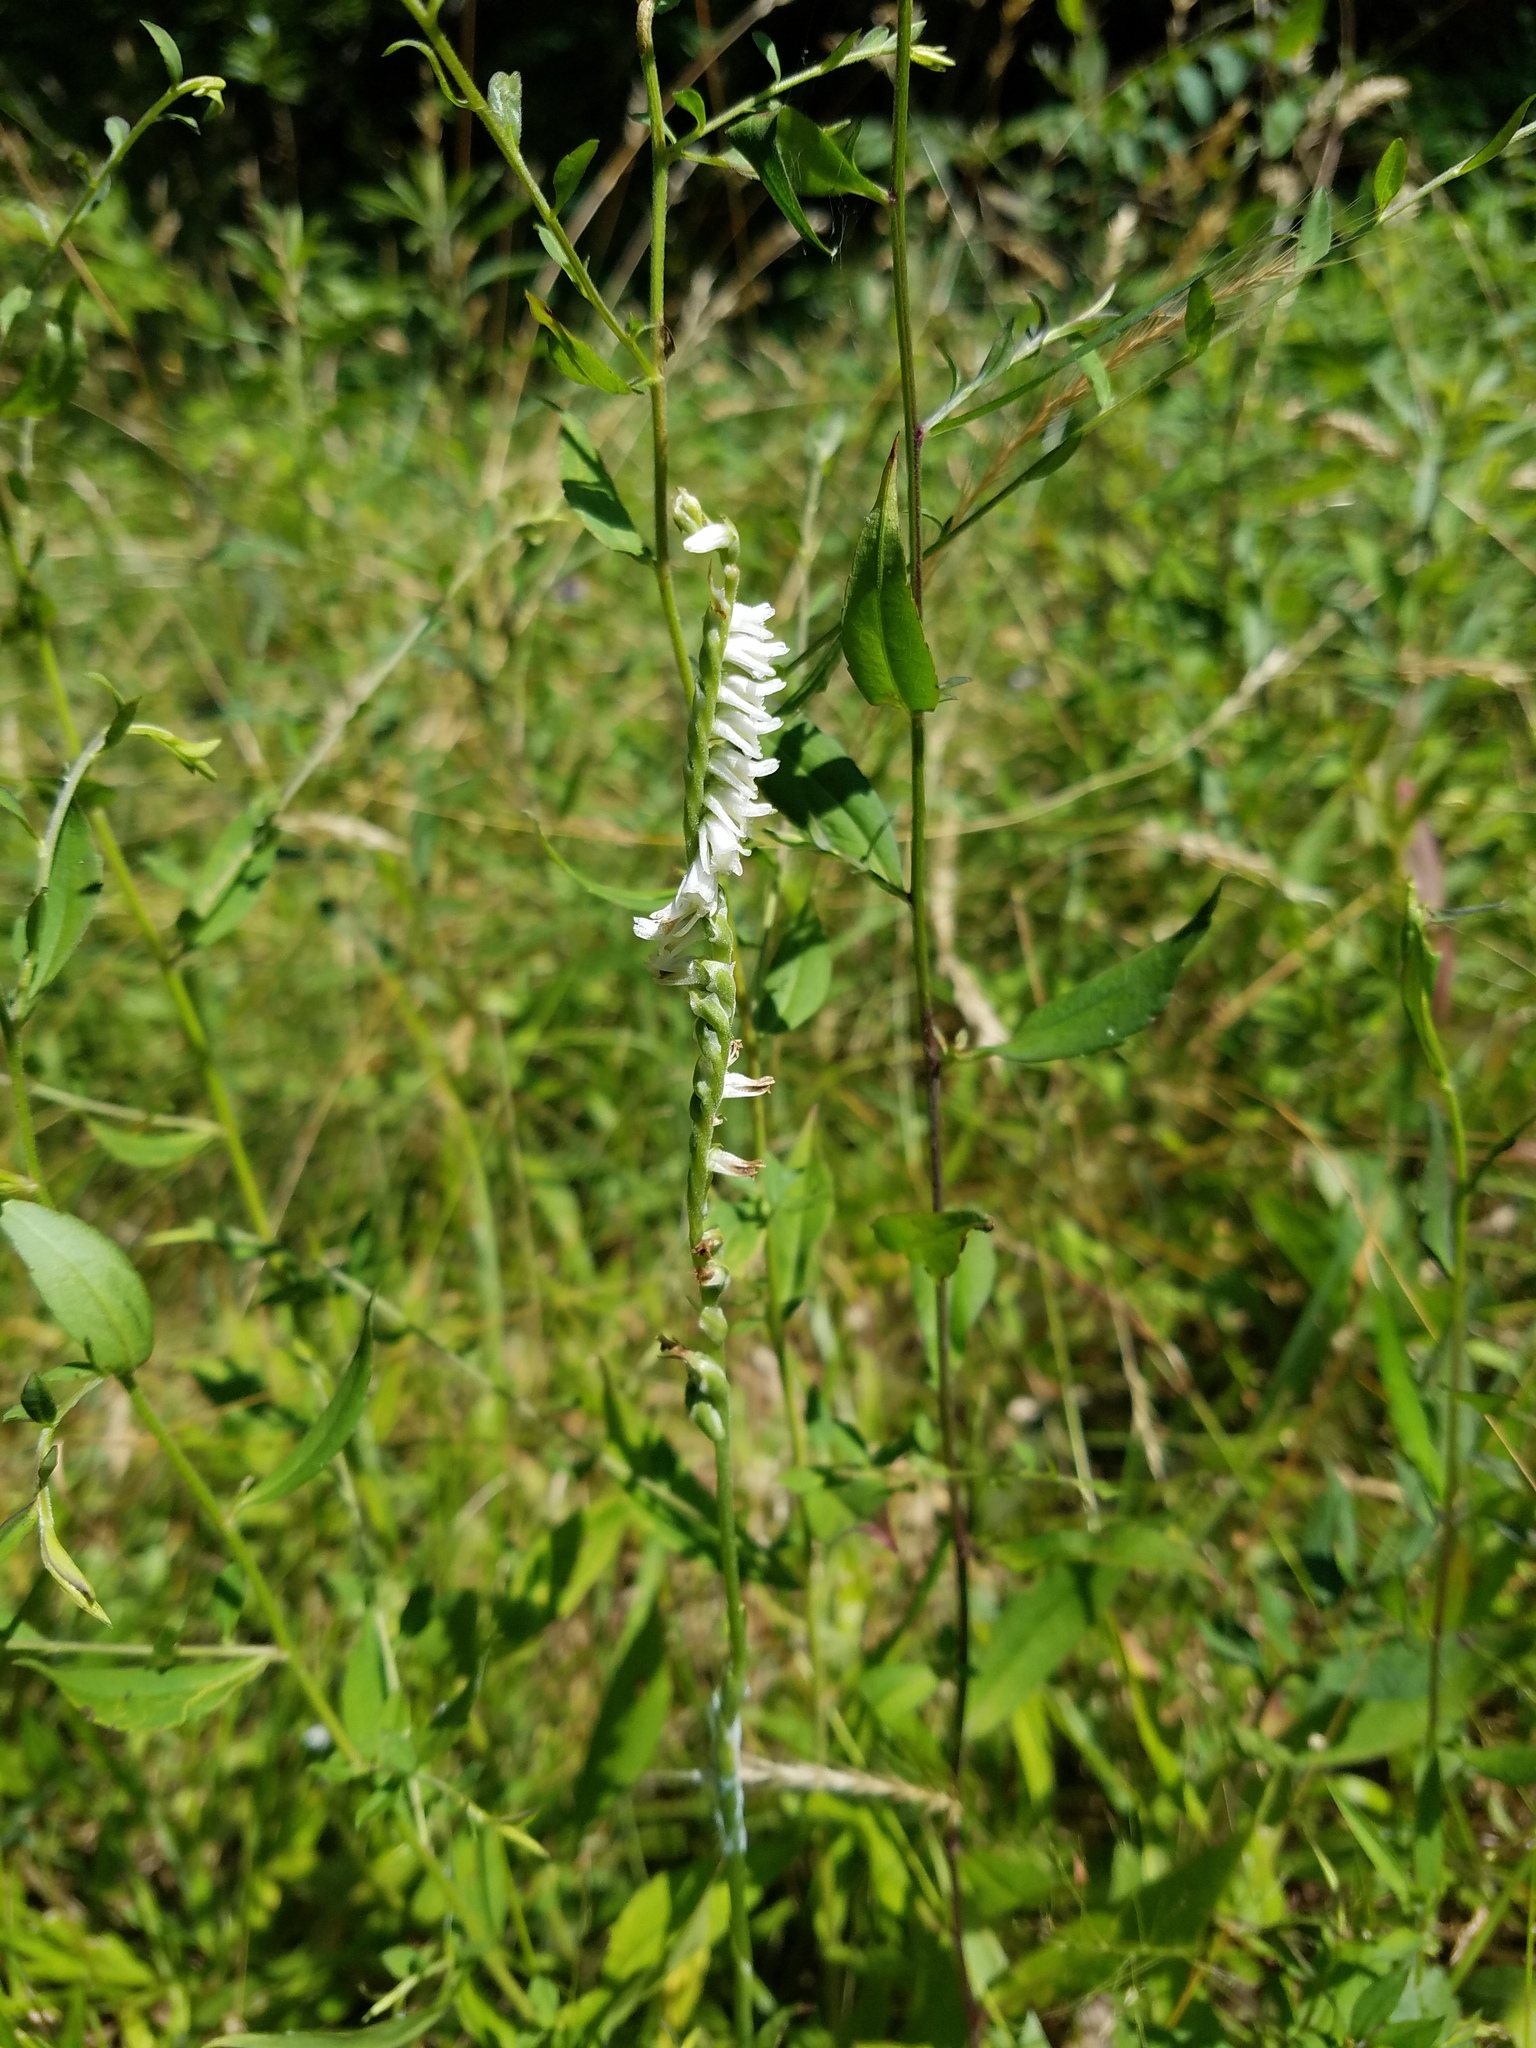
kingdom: Plantae
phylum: Tracheophyta
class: Liliopsida
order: Asparagales
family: Orchidaceae
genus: Spiranthes
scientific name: Spiranthes vernalis
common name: Spring ladies'-tresses
